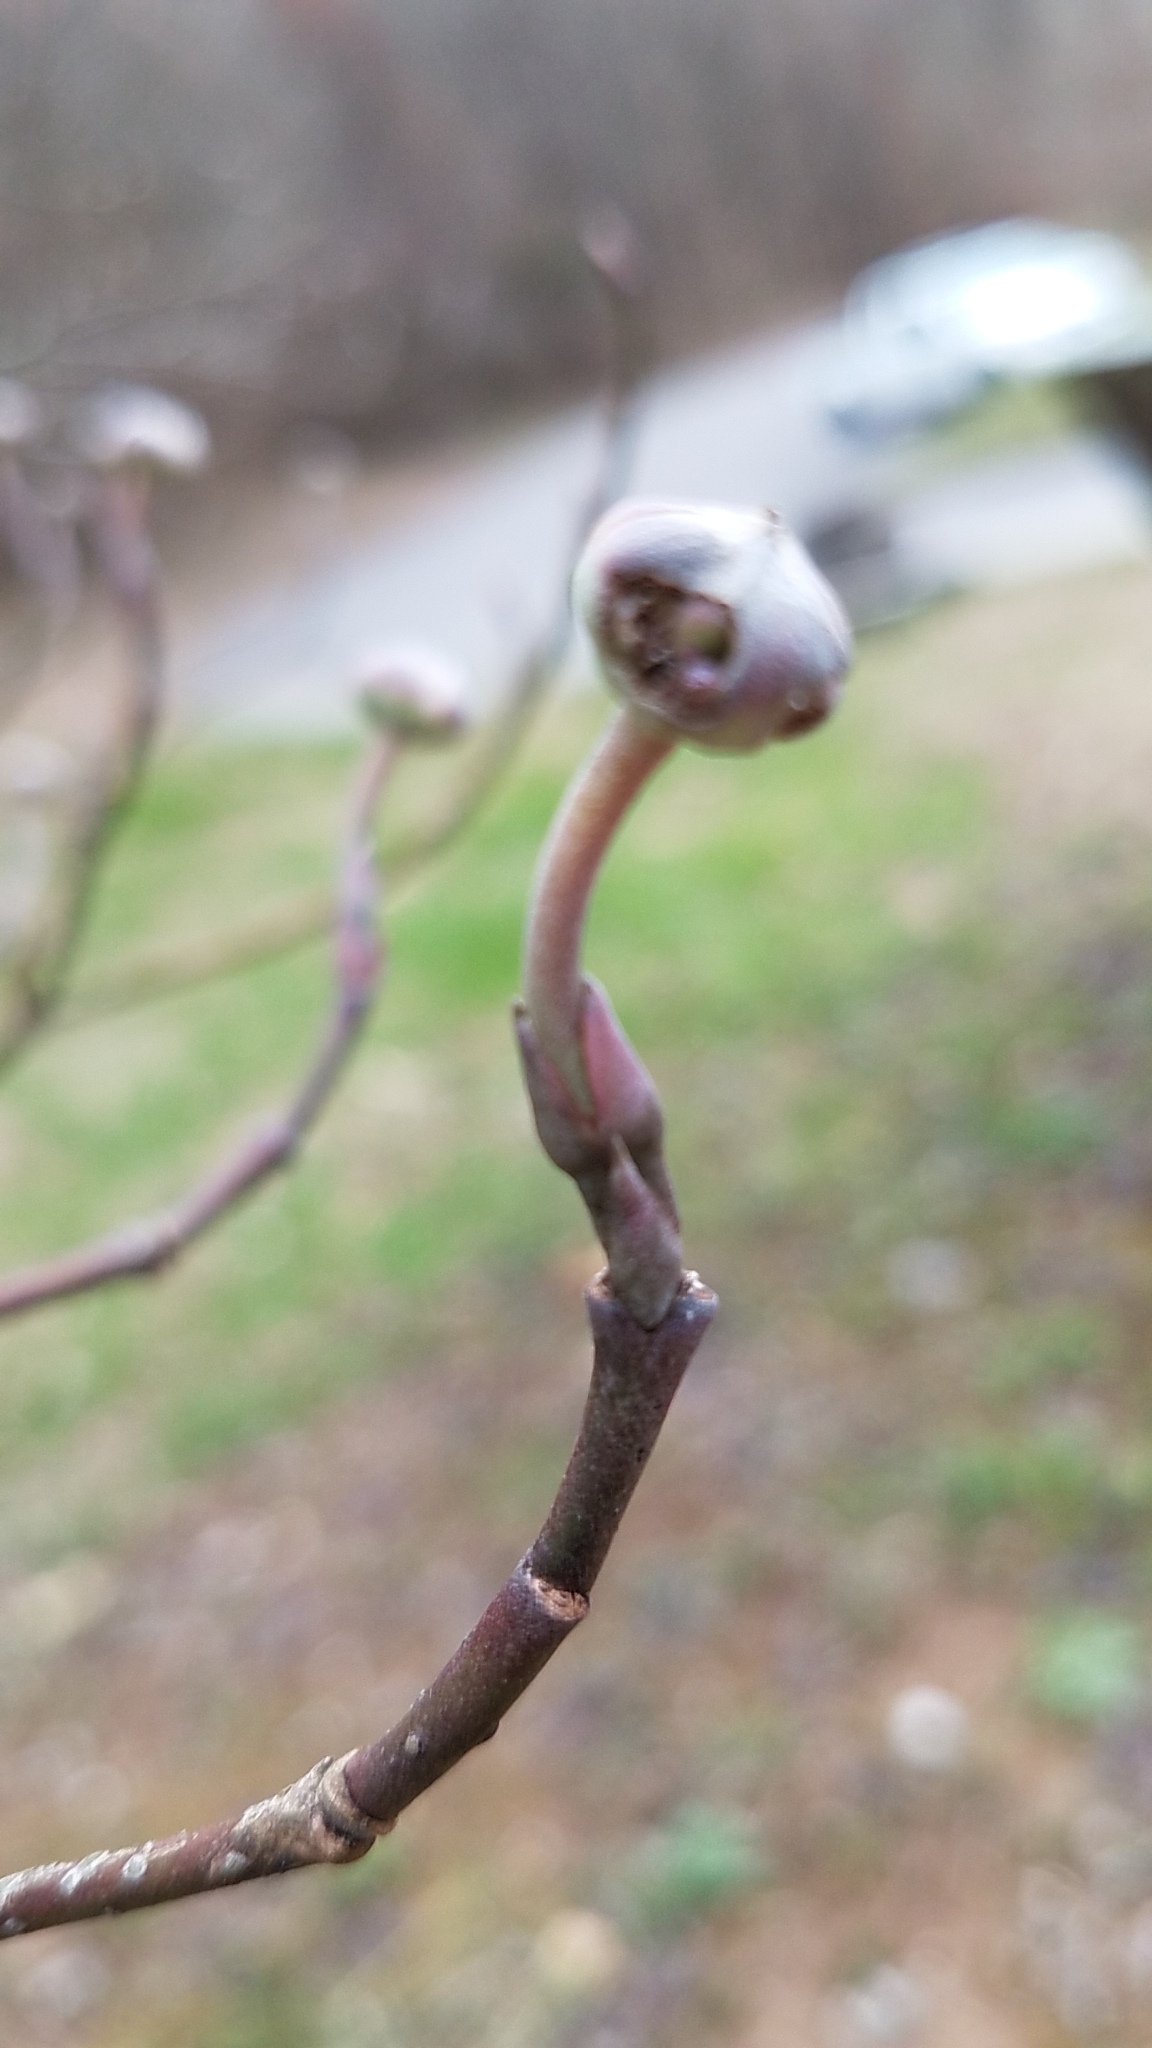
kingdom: Plantae
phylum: Tracheophyta
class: Magnoliopsida
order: Cornales
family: Cornaceae
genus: Cornus
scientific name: Cornus florida
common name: Flowering dogwood
